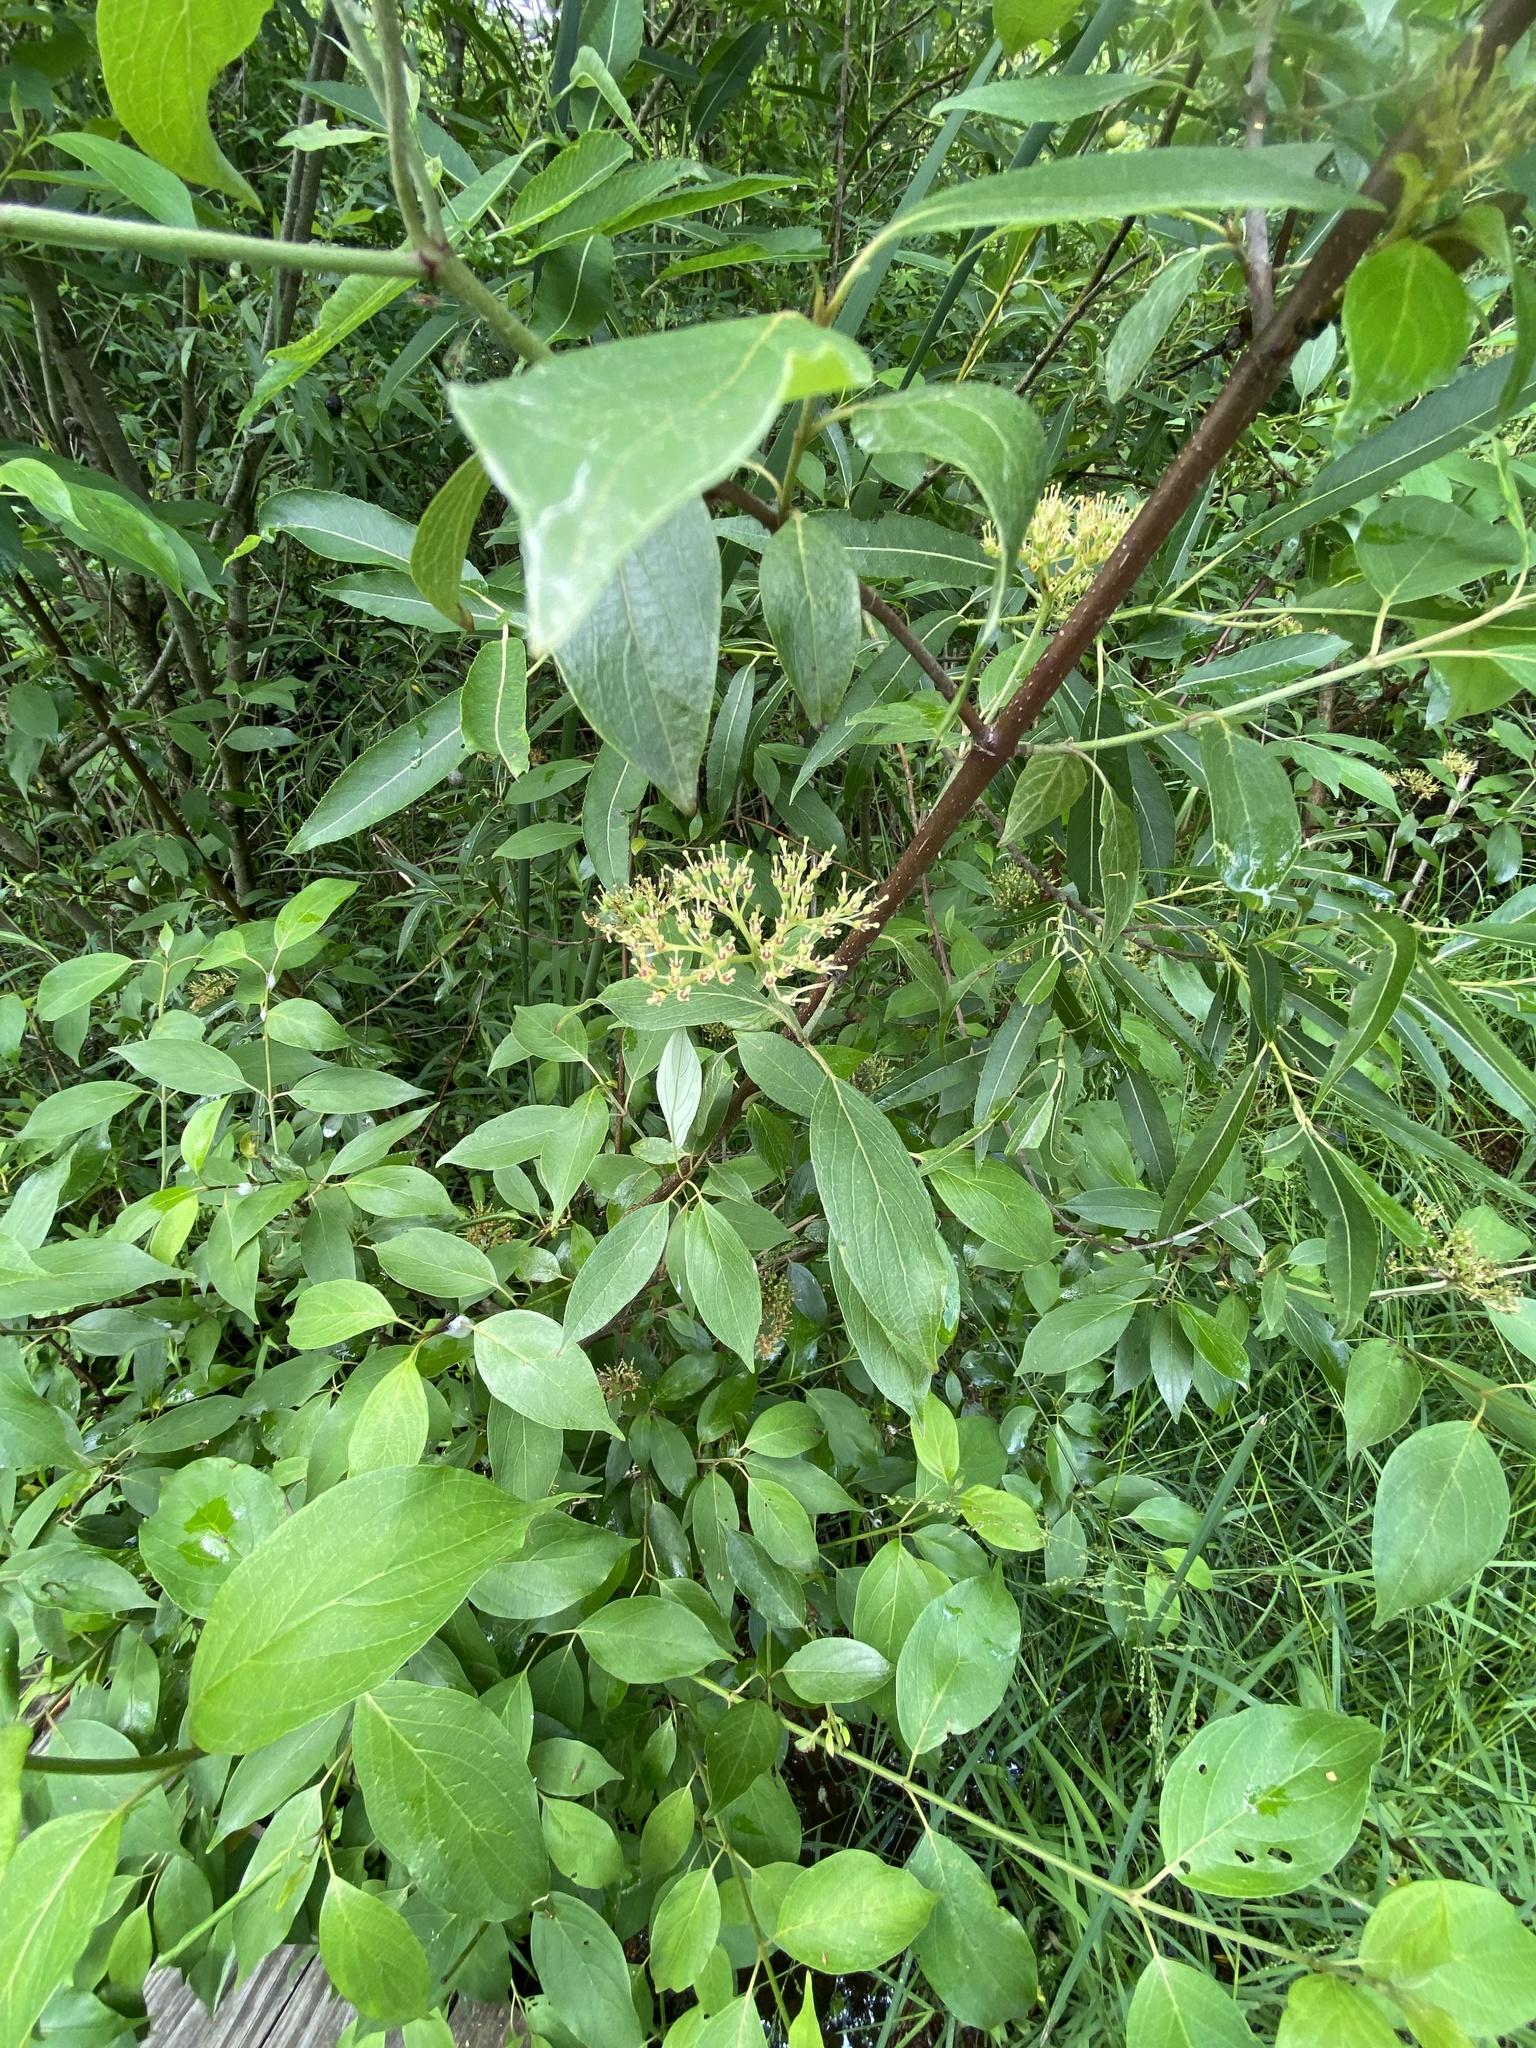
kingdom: Plantae
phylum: Tracheophyta
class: Magnoliopsida
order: Cornales
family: Cornaceae
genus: Cornus
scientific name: Cornus amomum
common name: Silky dogwood
